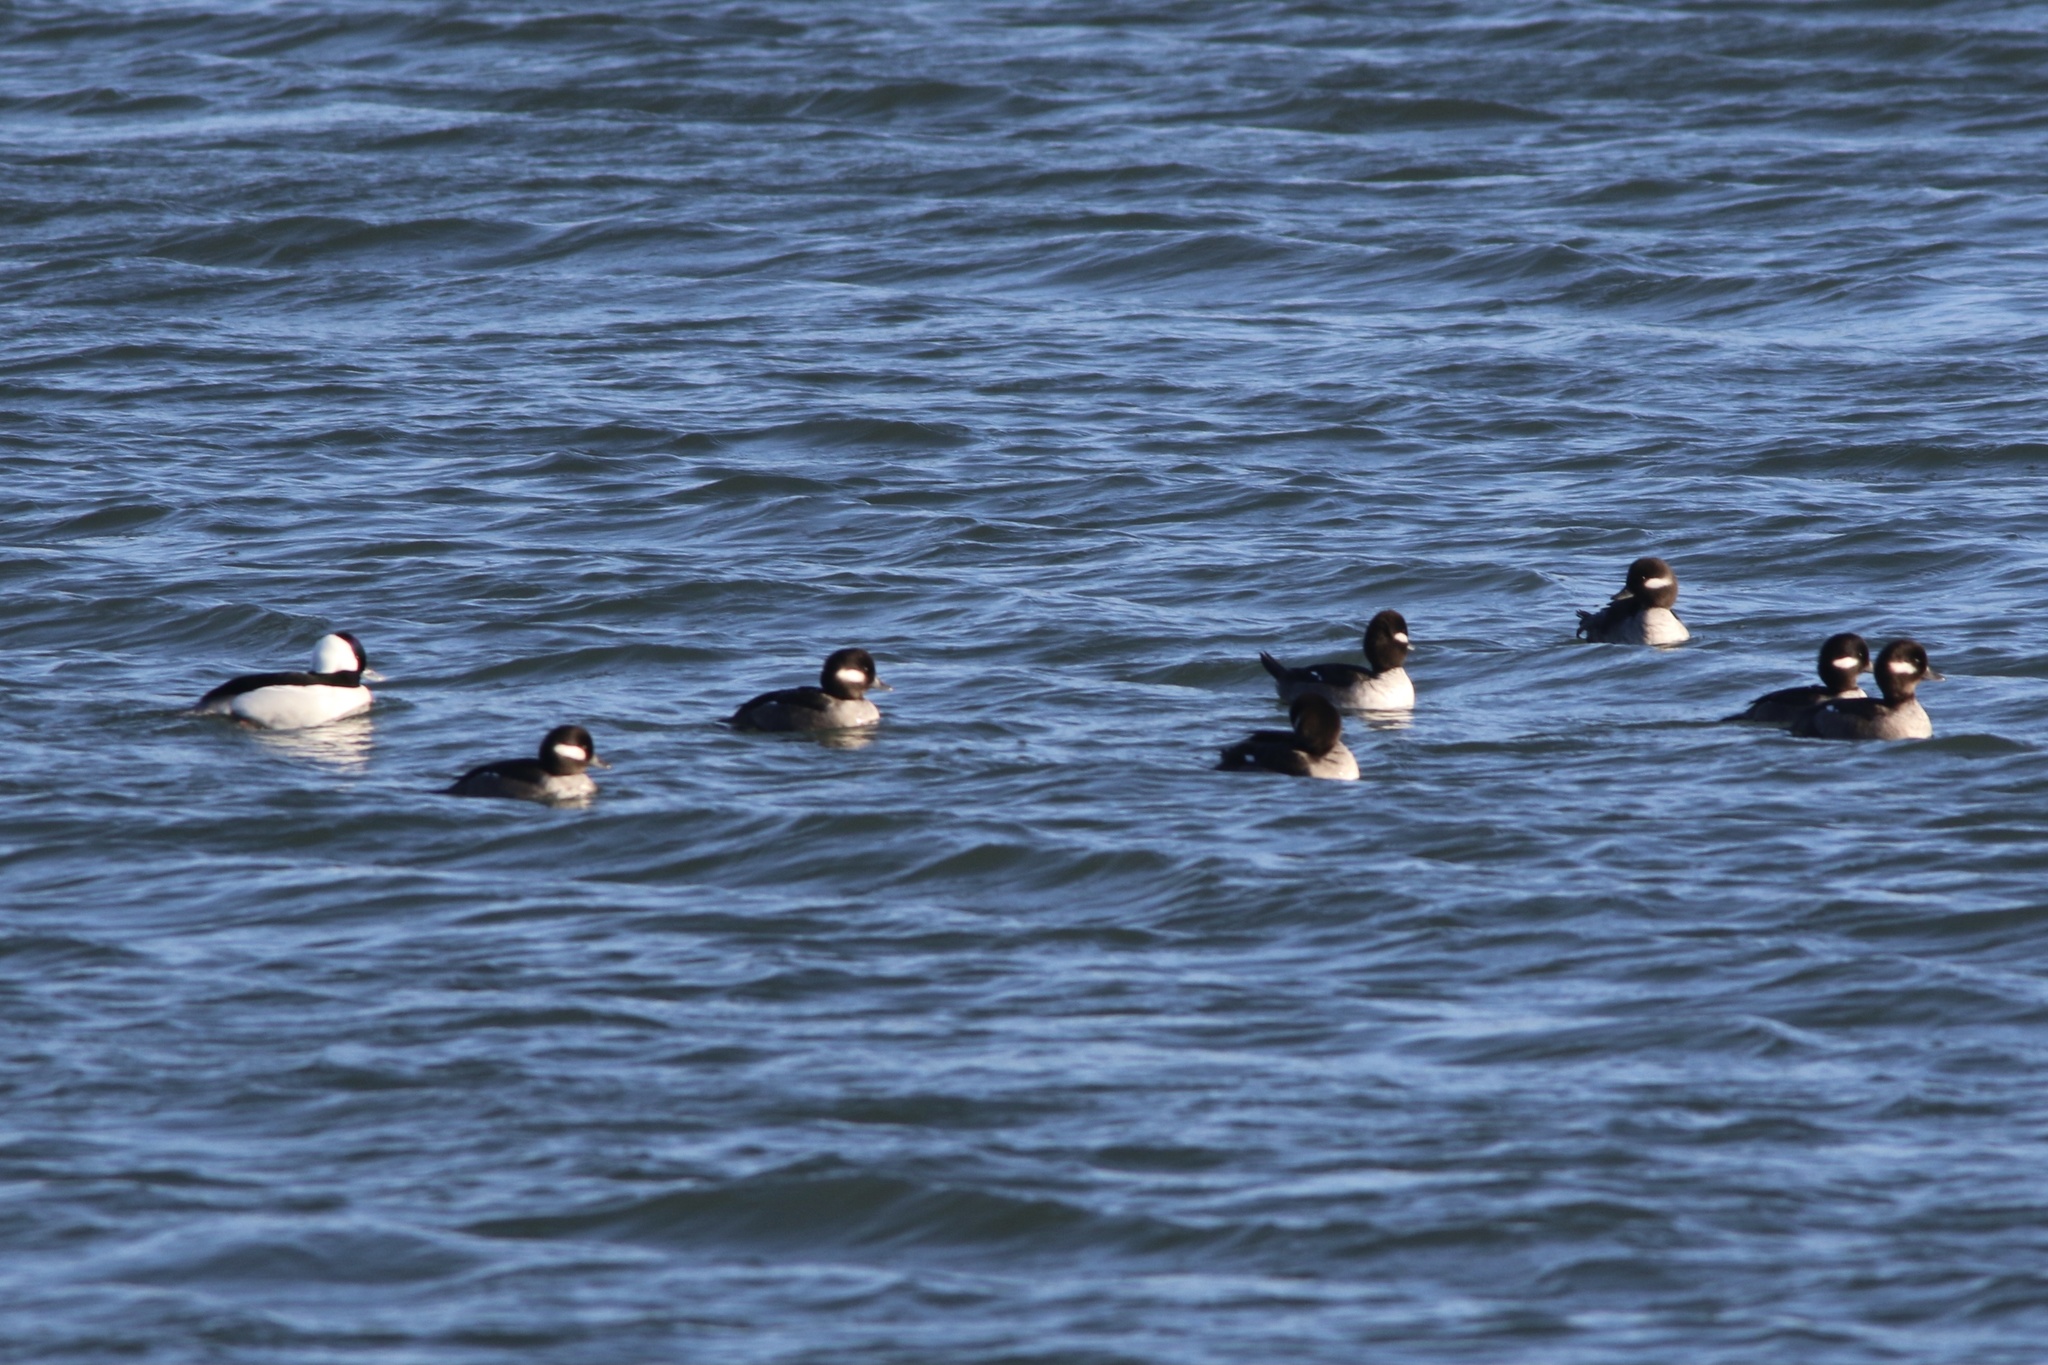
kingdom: Animalia
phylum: Chordata
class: Aves
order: Anseriformes
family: Anatidae
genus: Bucephala
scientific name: Bucephala albeola
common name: Bufflehead
